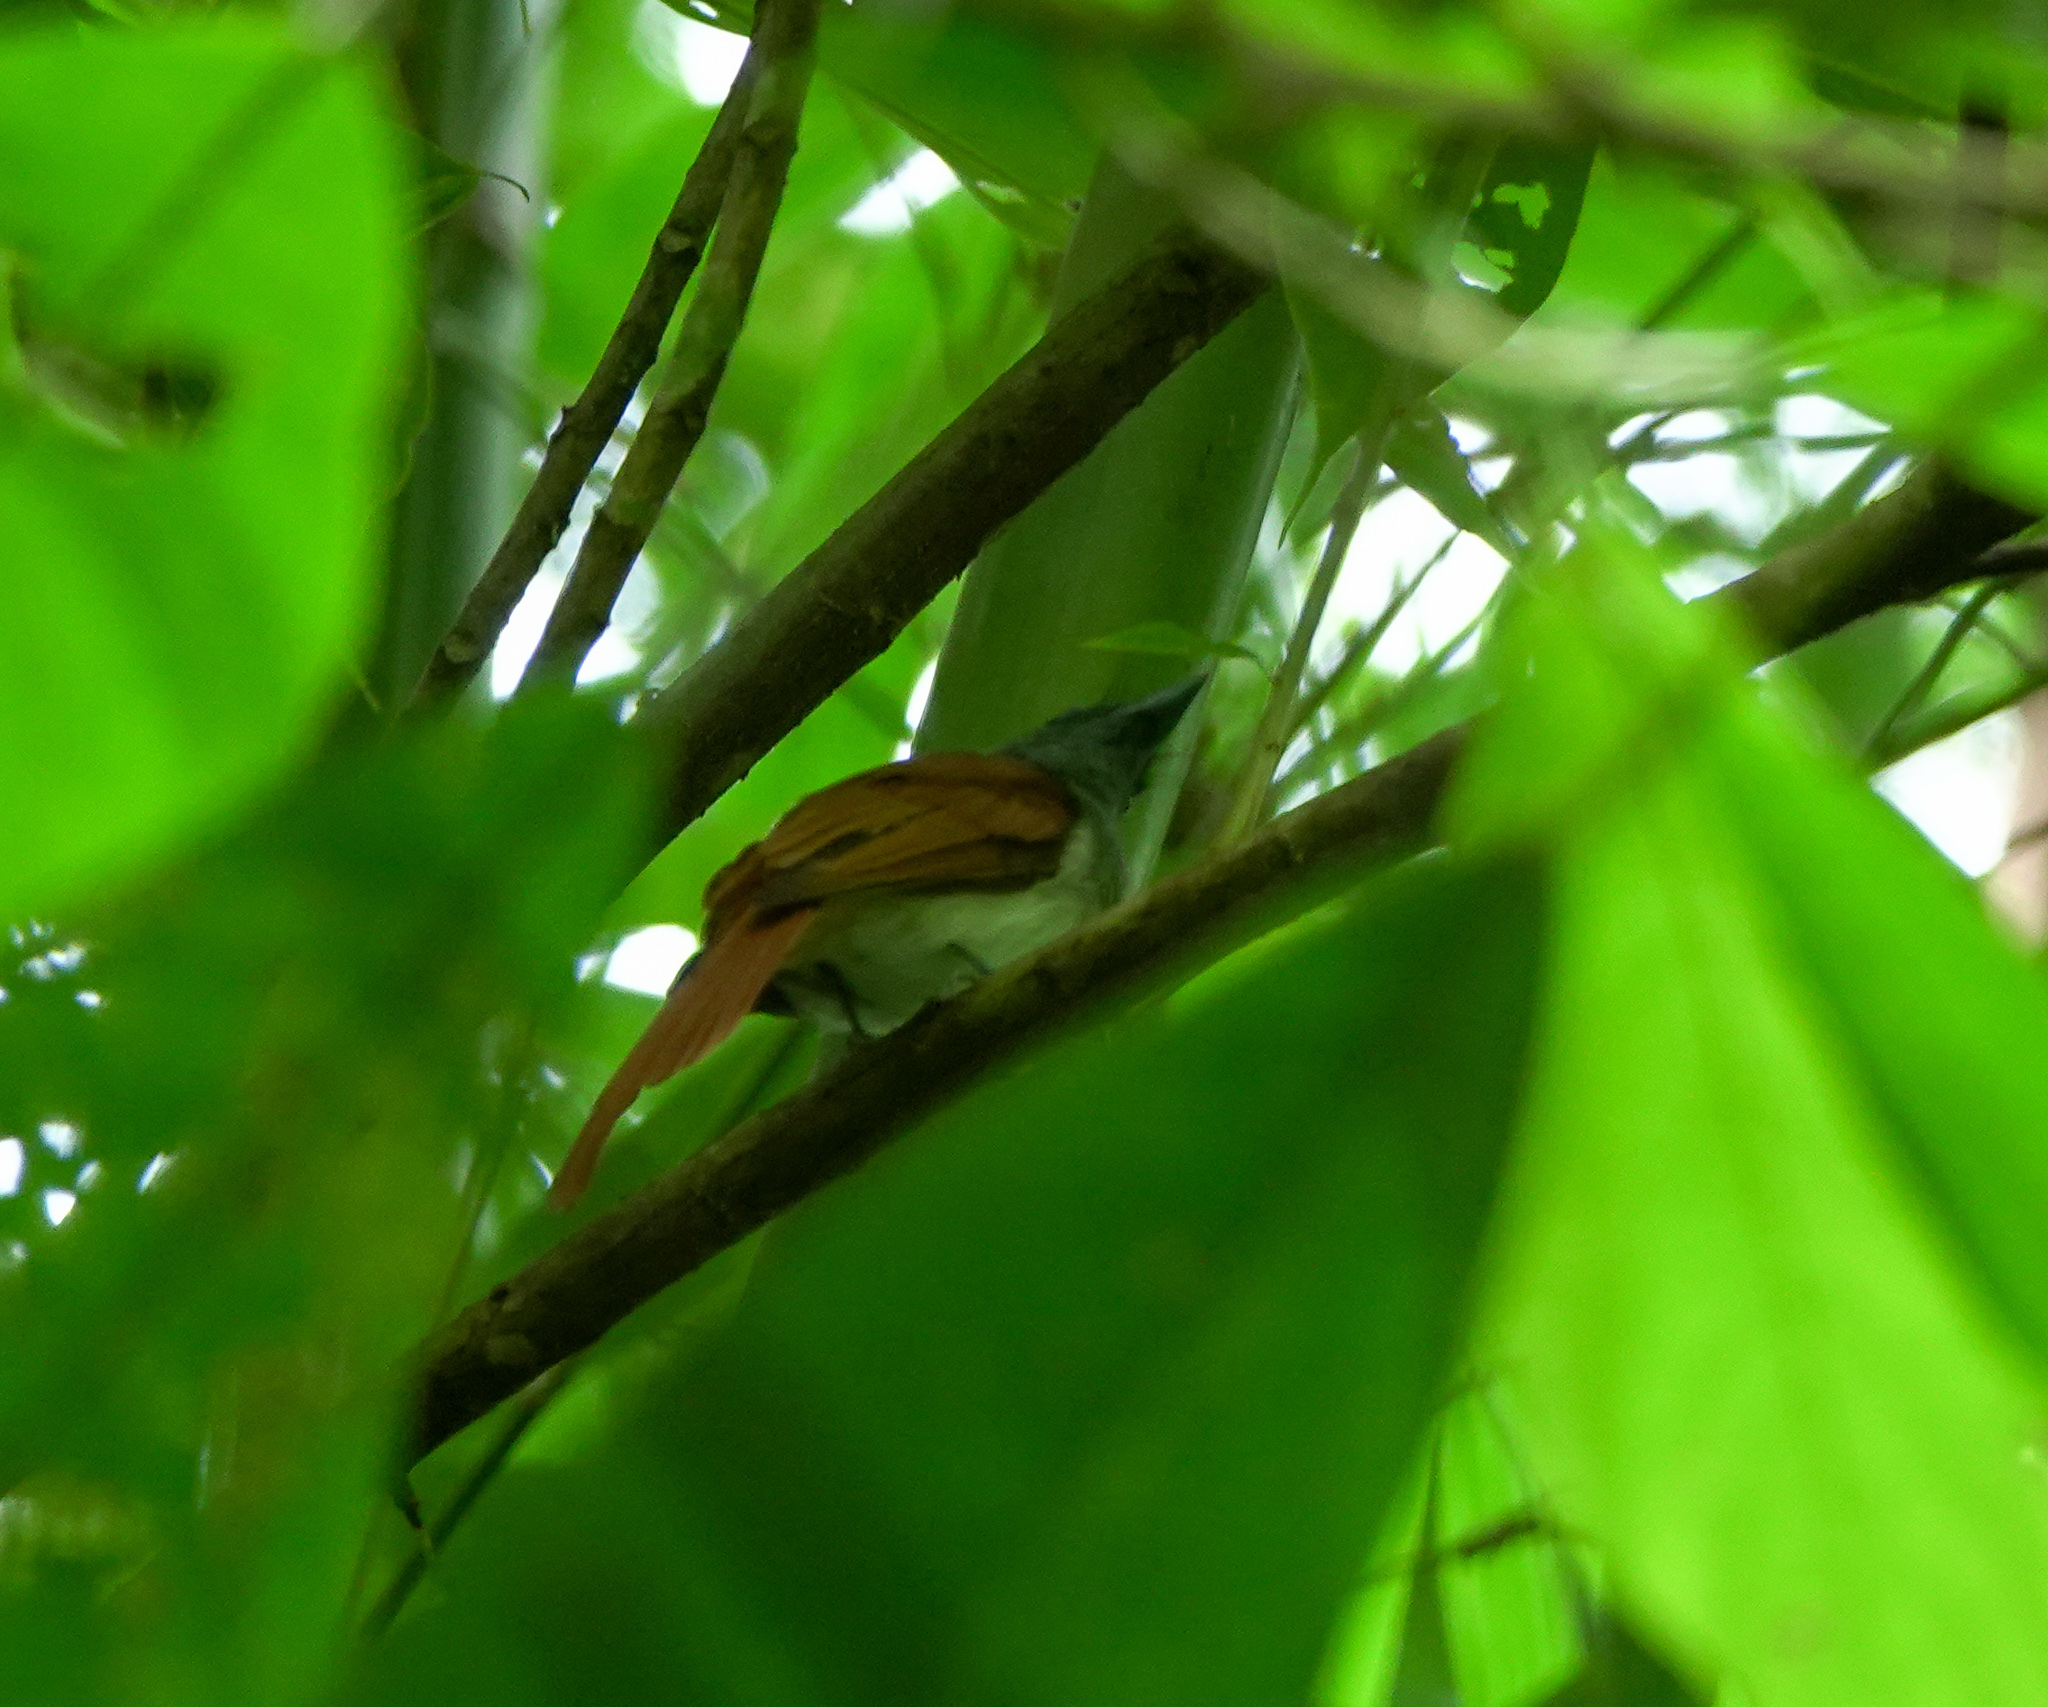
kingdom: Animalia
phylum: Chordata
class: Aves
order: Passeriformes
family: Monarchidae
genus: Terpsiphone
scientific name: Terpsiphone paradisi
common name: Indian paradise flycatcher
